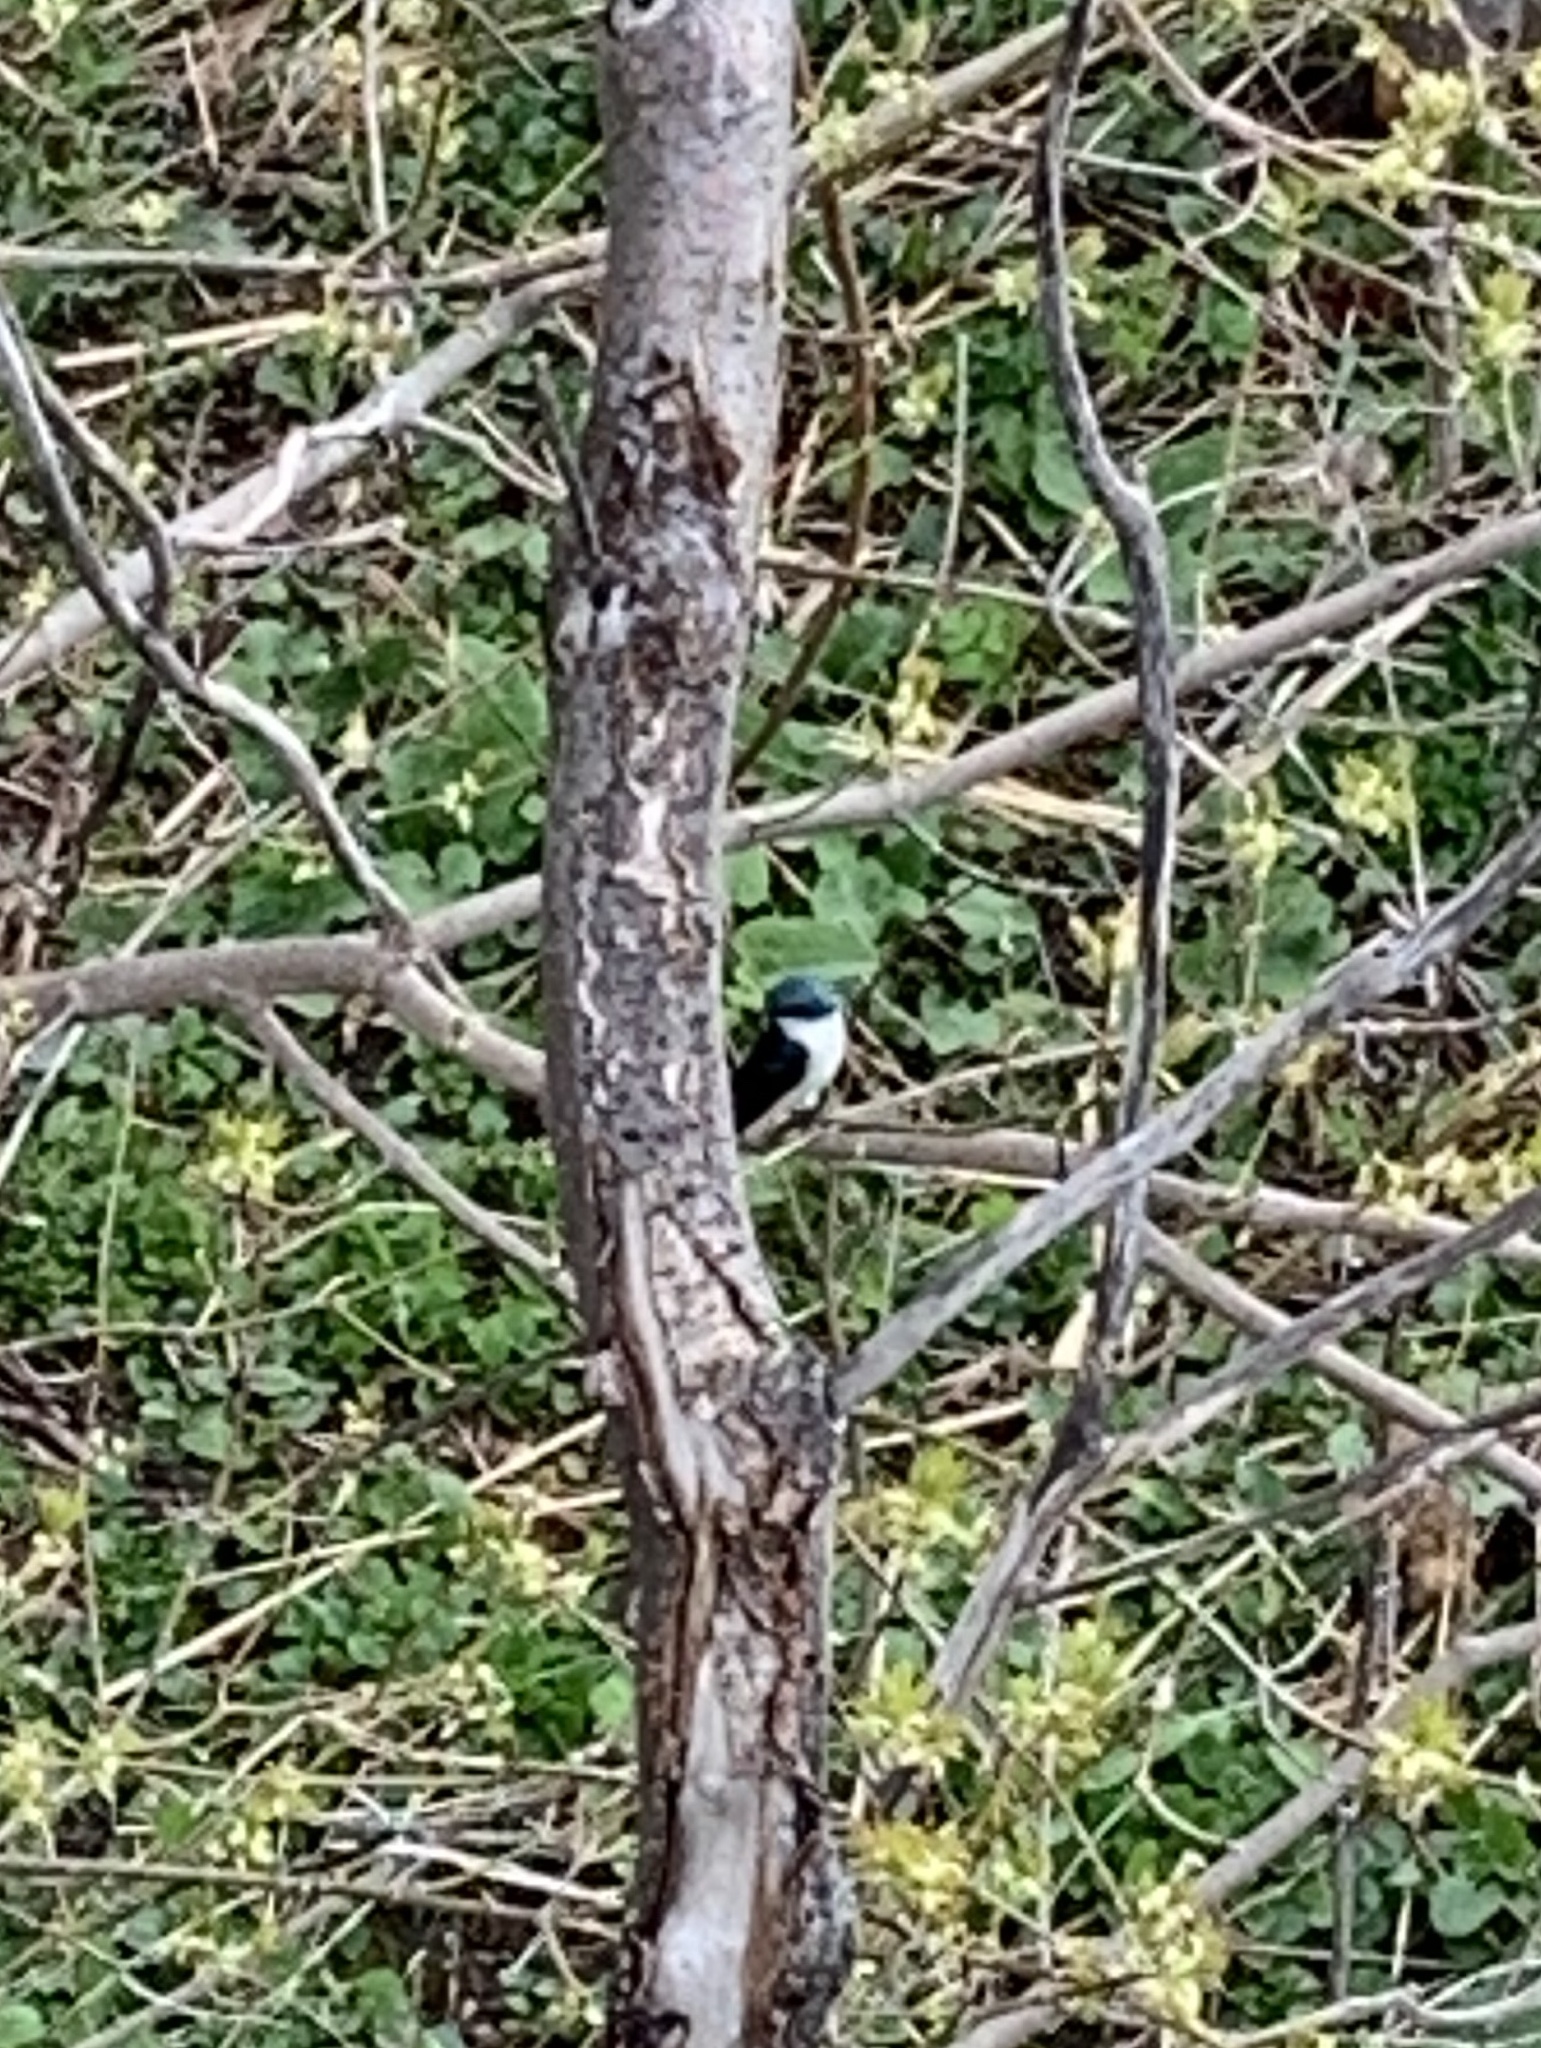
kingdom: Animalia
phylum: Chordata
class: Aves
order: Passeriformes
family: Hirundinidae
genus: Tachycineta
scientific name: Tachycineta bicolor
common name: Tree swallow
